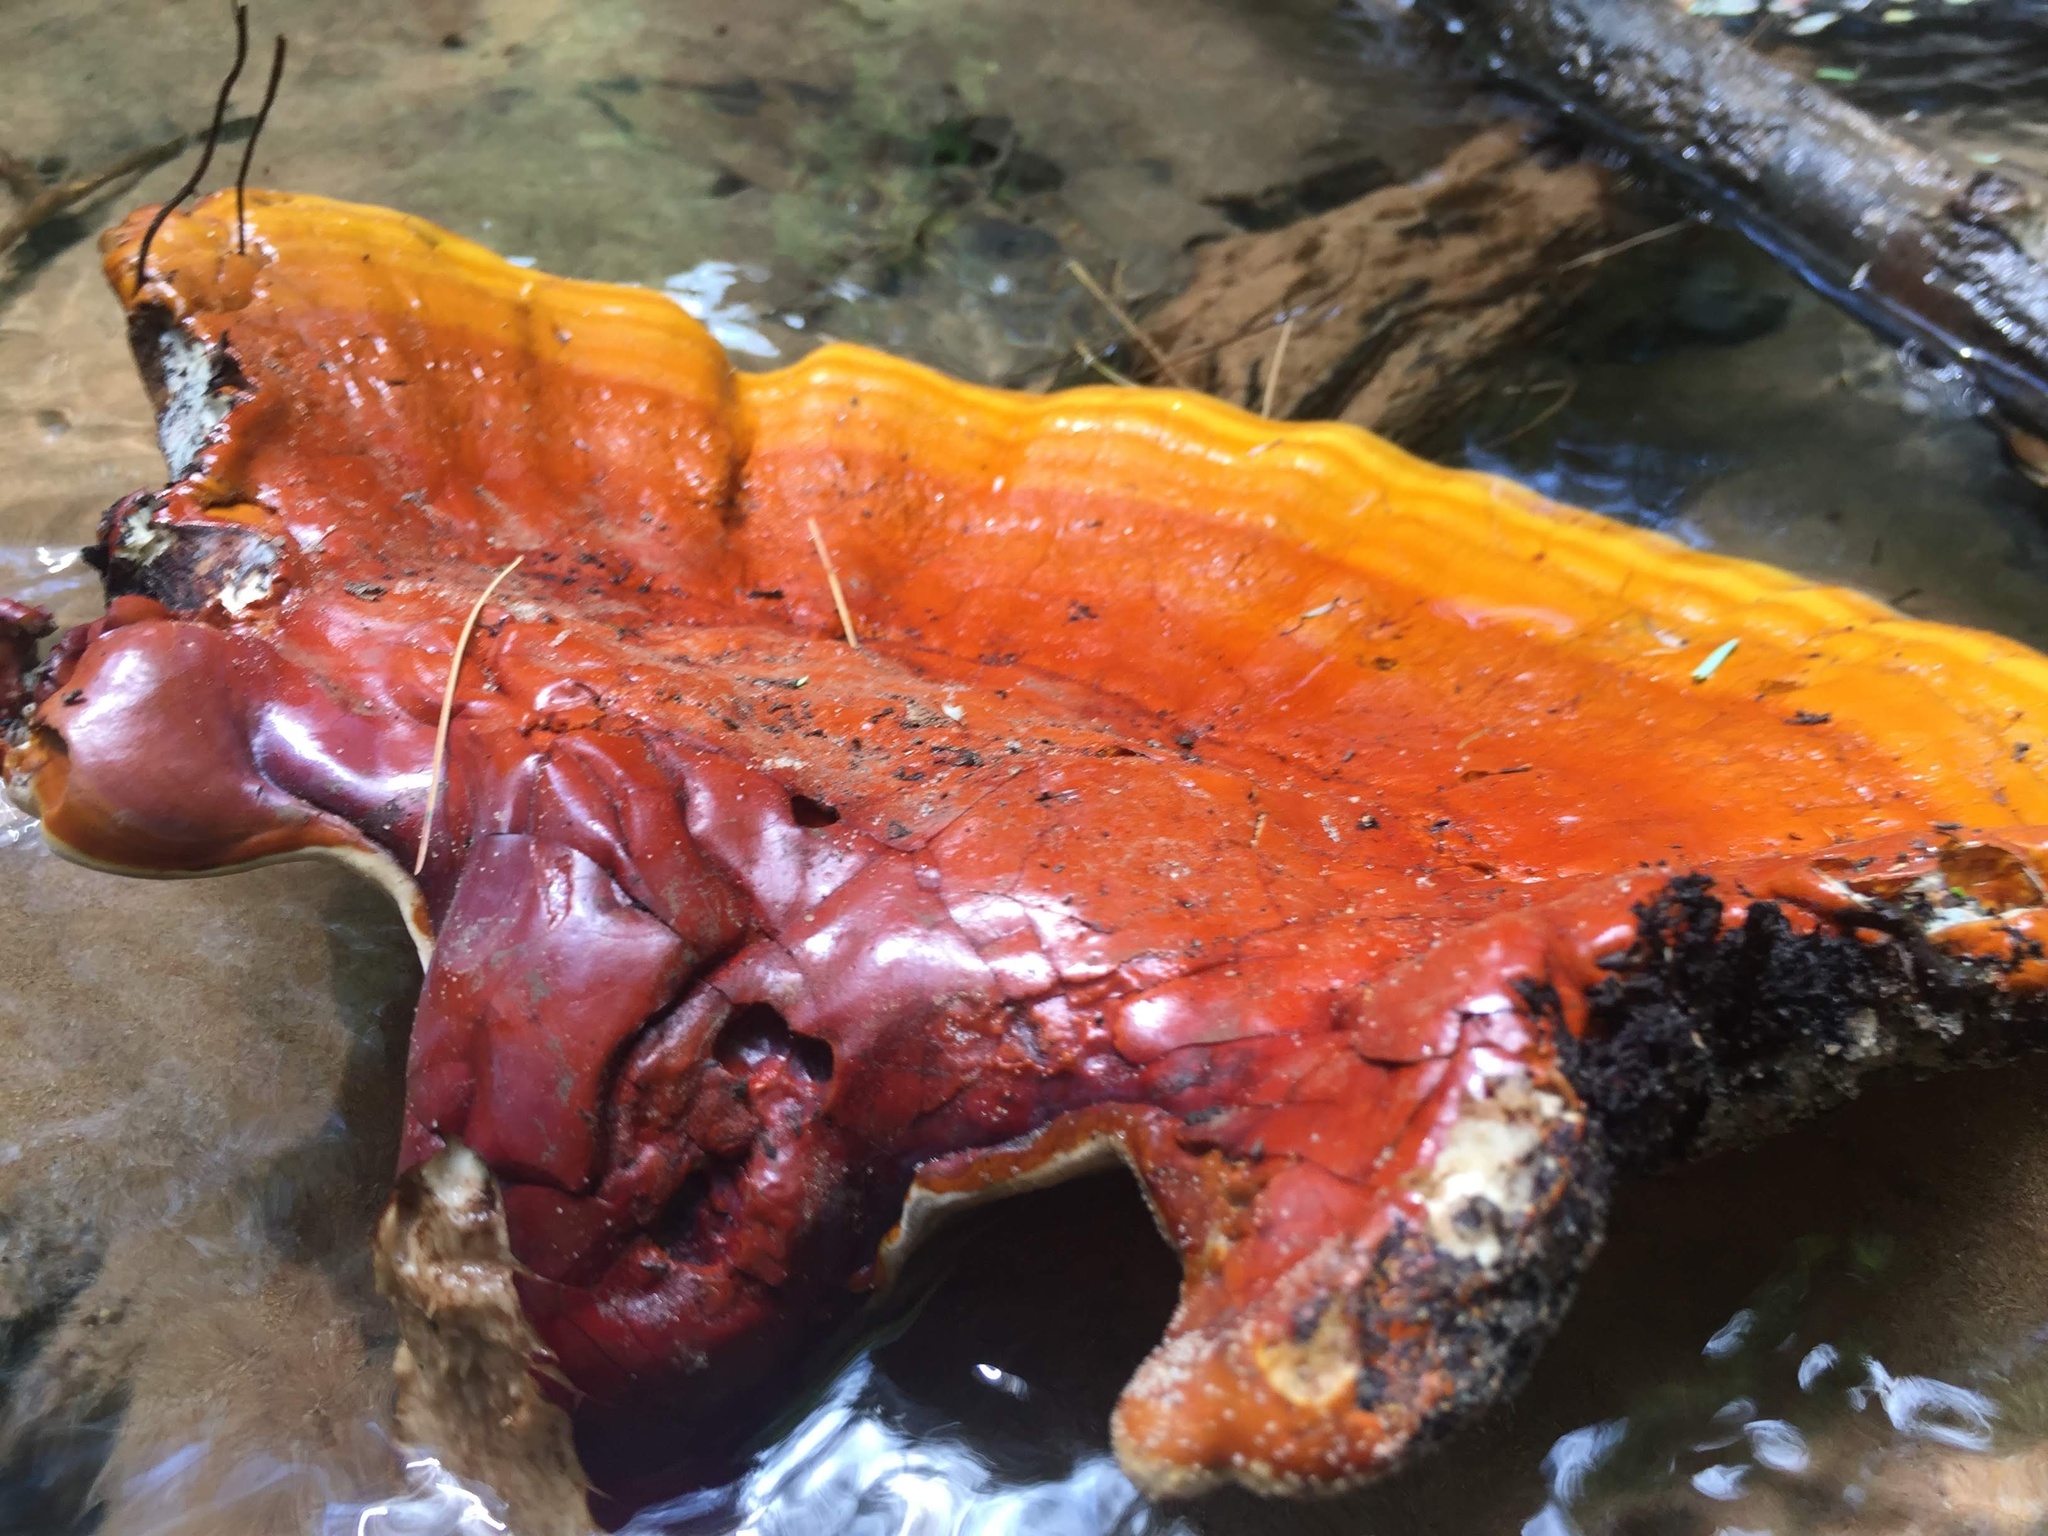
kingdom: Fungi
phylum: Basidiomycota
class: Agaricomycetes
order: Polyporales
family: Polyporaceae
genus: Ganoderma
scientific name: Ganoderma tsugae
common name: Hemlock varnish shelf
